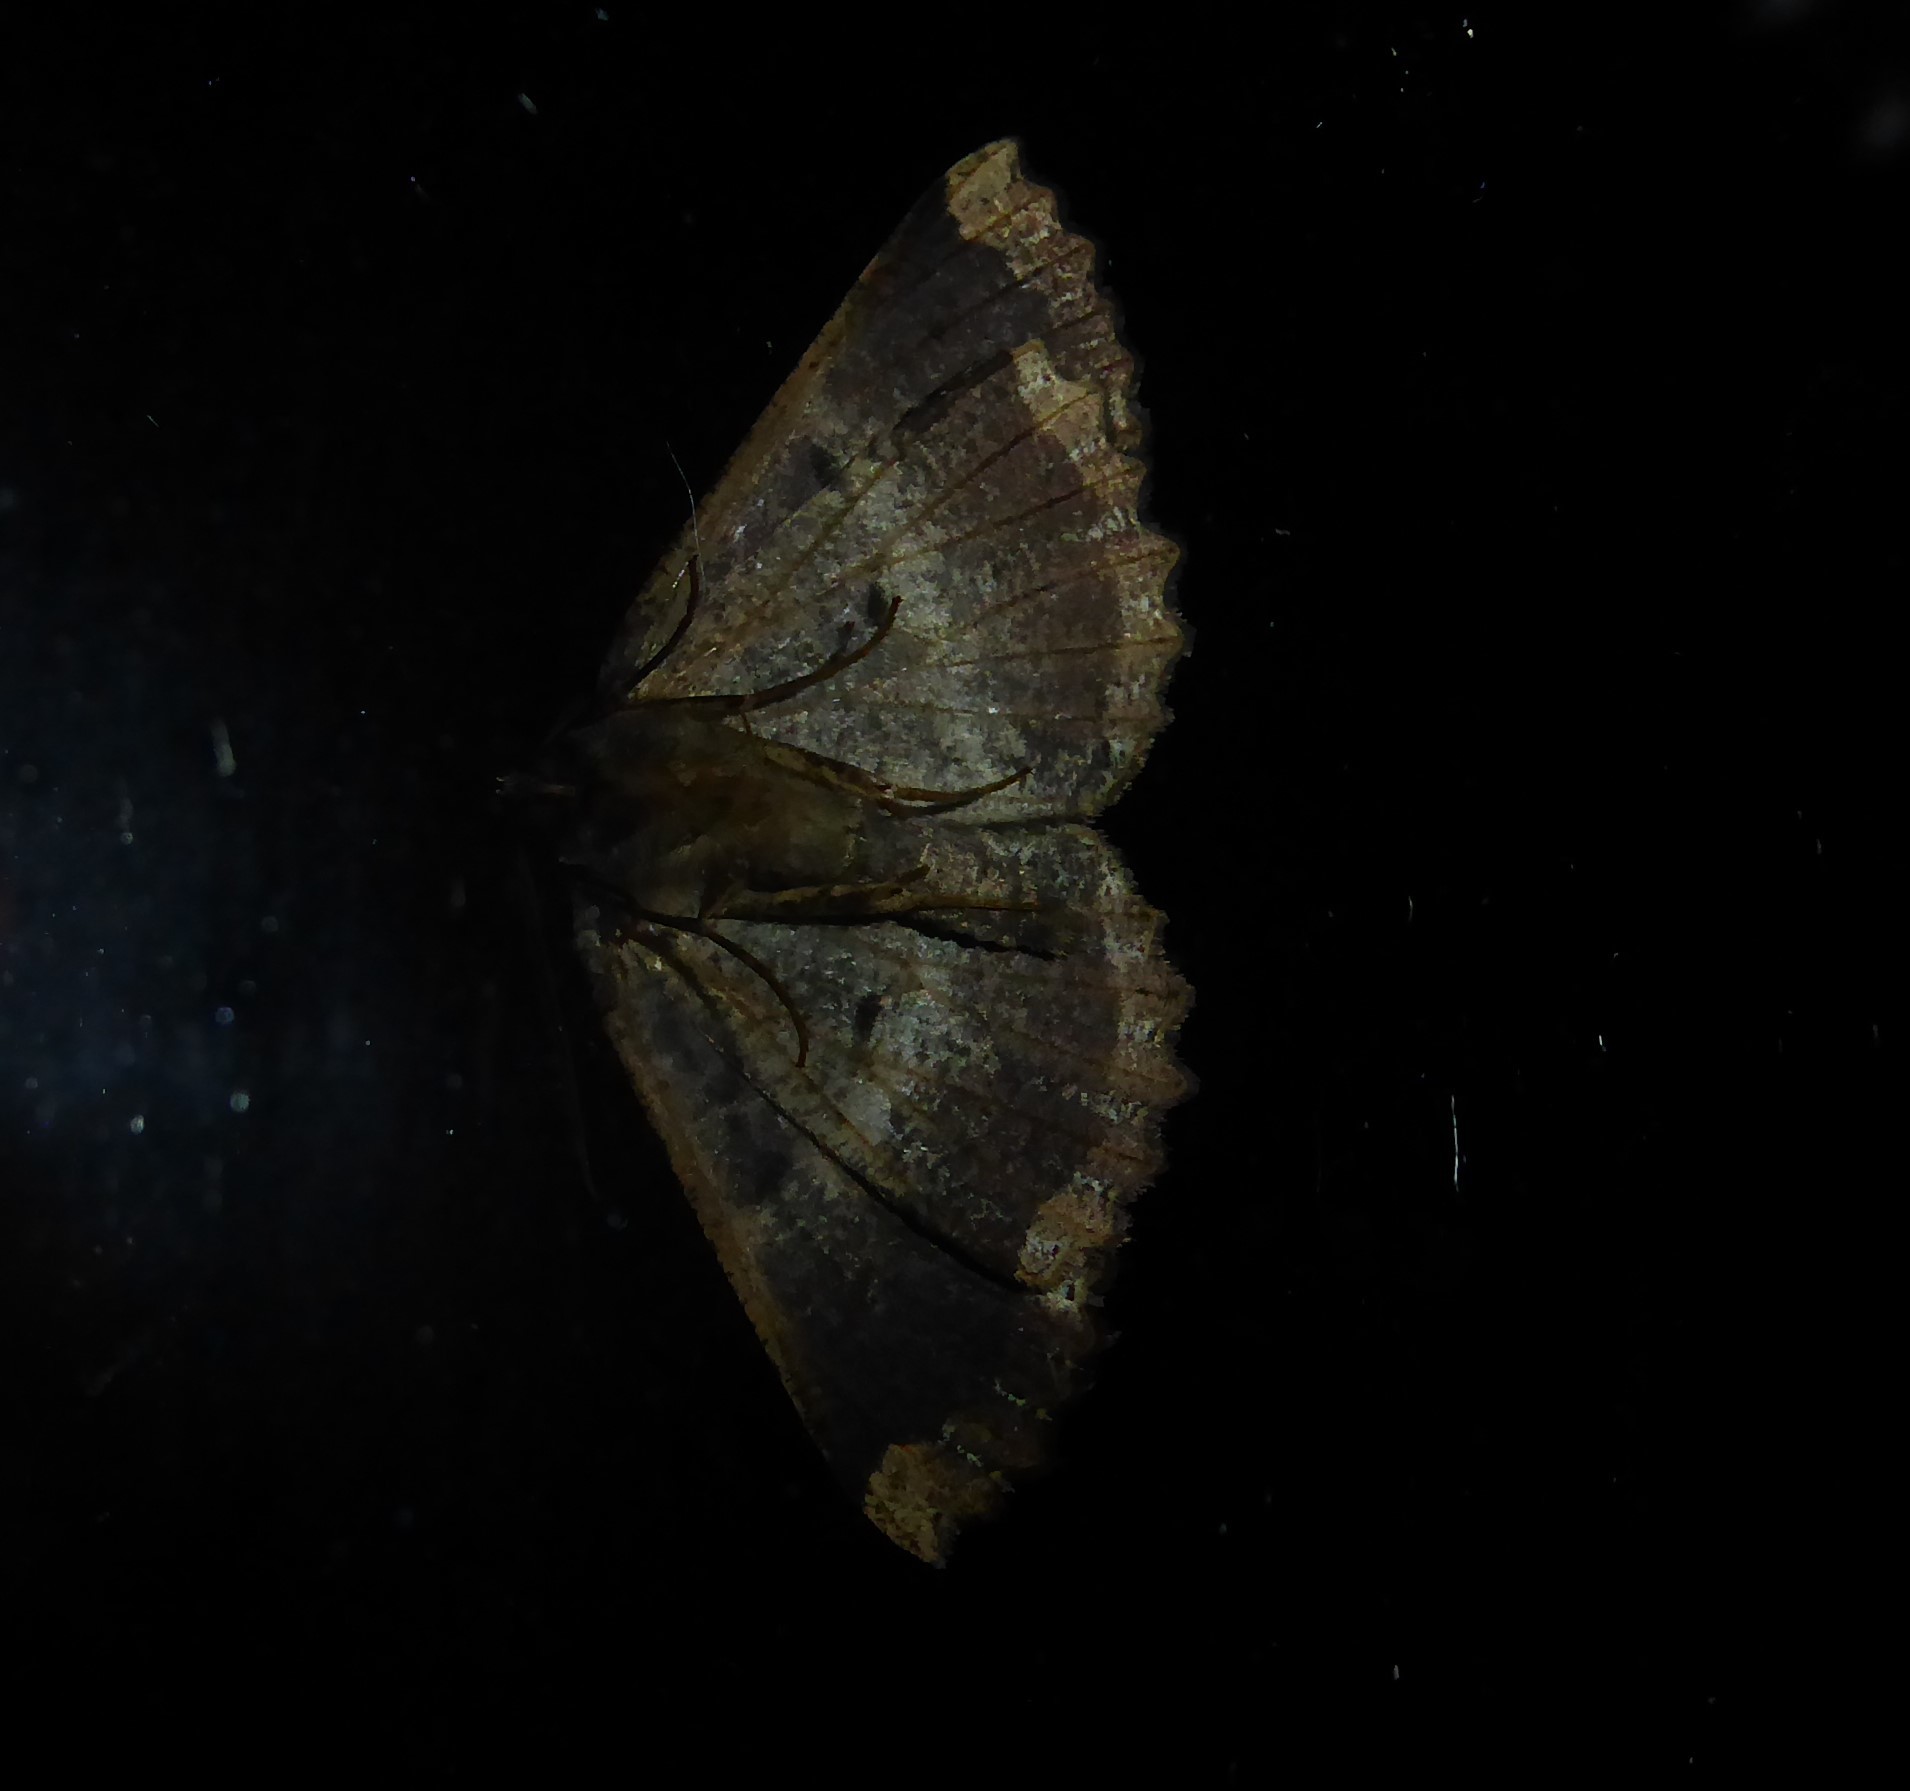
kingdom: Animalia
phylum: Arthropoda
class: Insecta
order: Lepidoptera
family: Geometridae
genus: Gellonia
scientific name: Gellonia dejectaria
